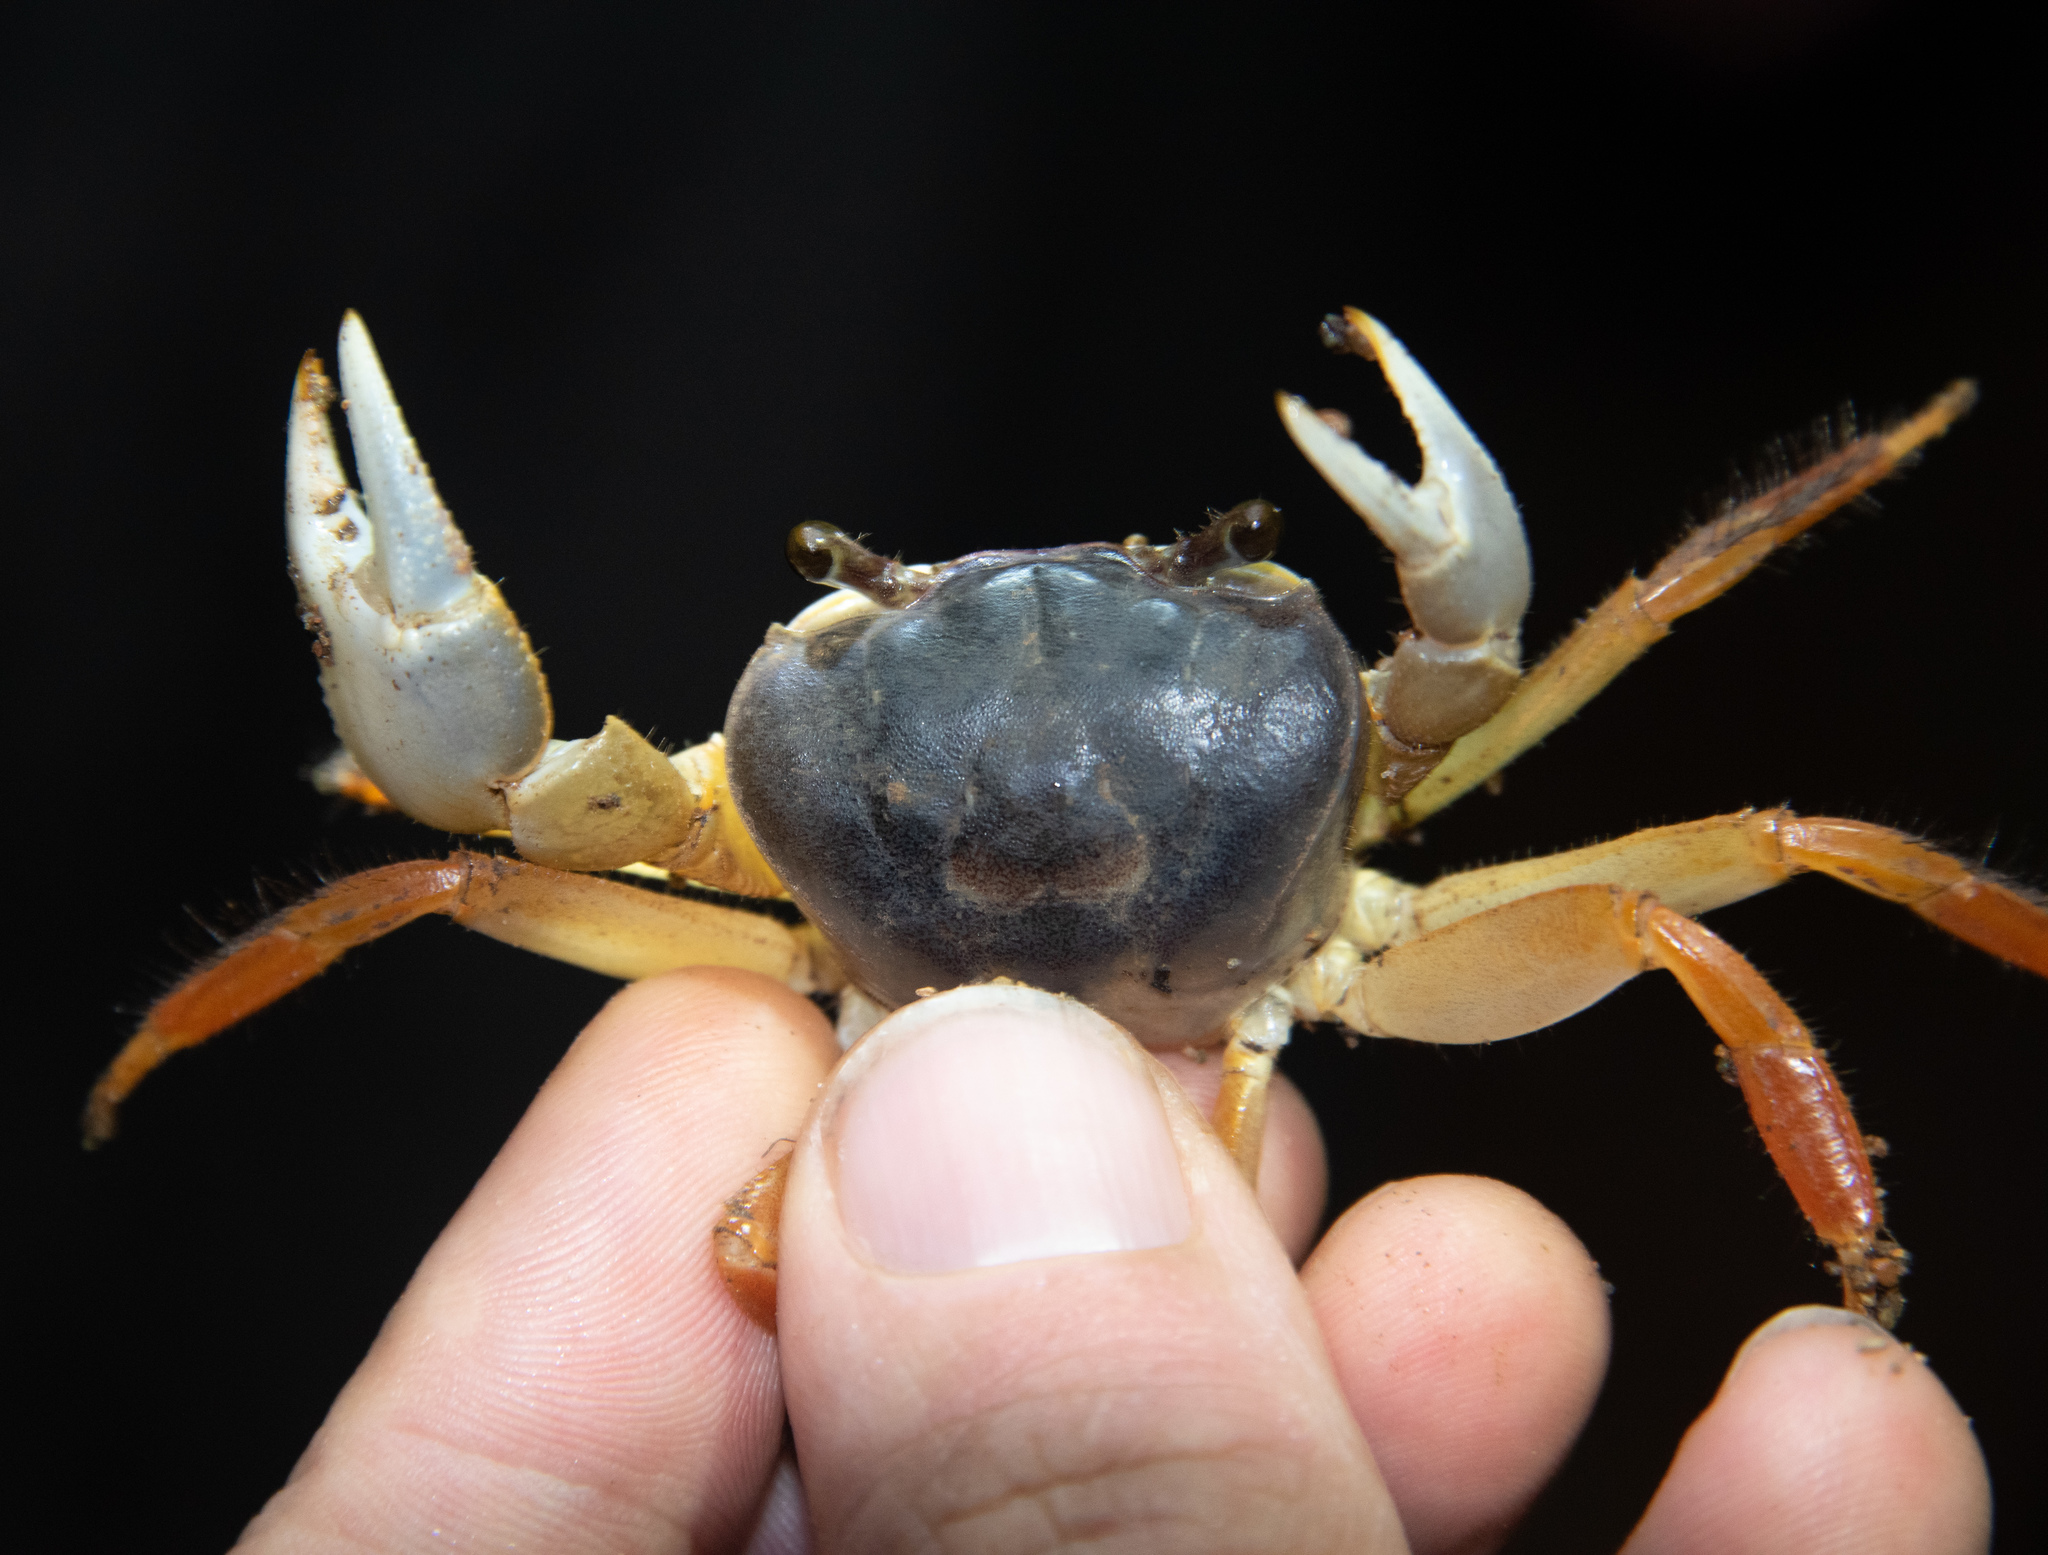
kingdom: Animalia
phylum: Arthropoda
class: Malacostraca
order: Decapoda
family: Gecarcinidae
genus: Cardisoma
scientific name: Cardisoma crassum
